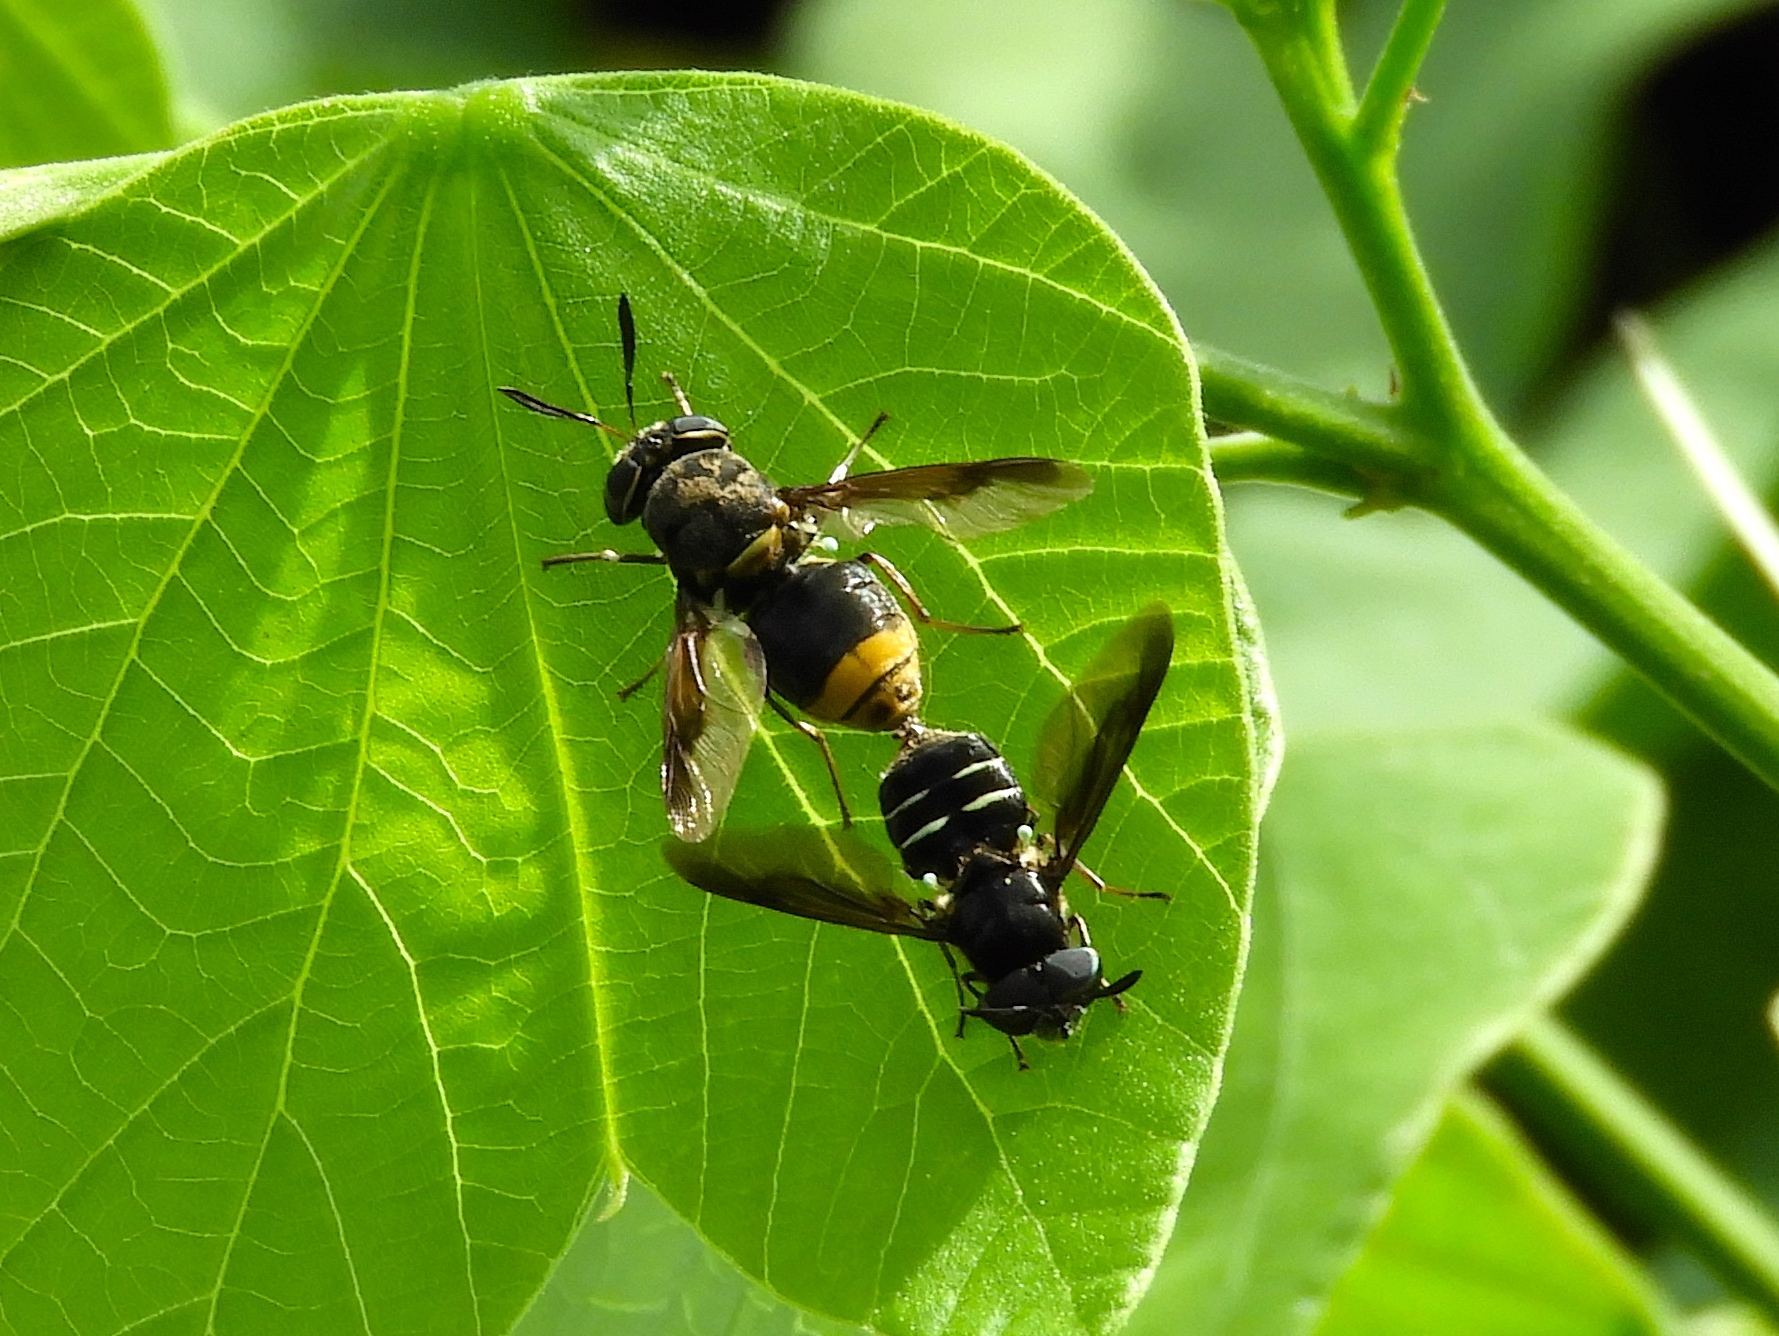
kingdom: Animalia
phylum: Arthropoda
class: Insecta
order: Diptera
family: Stratiomyidae
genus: Hoplitimyia
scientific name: Hoplitimyia
